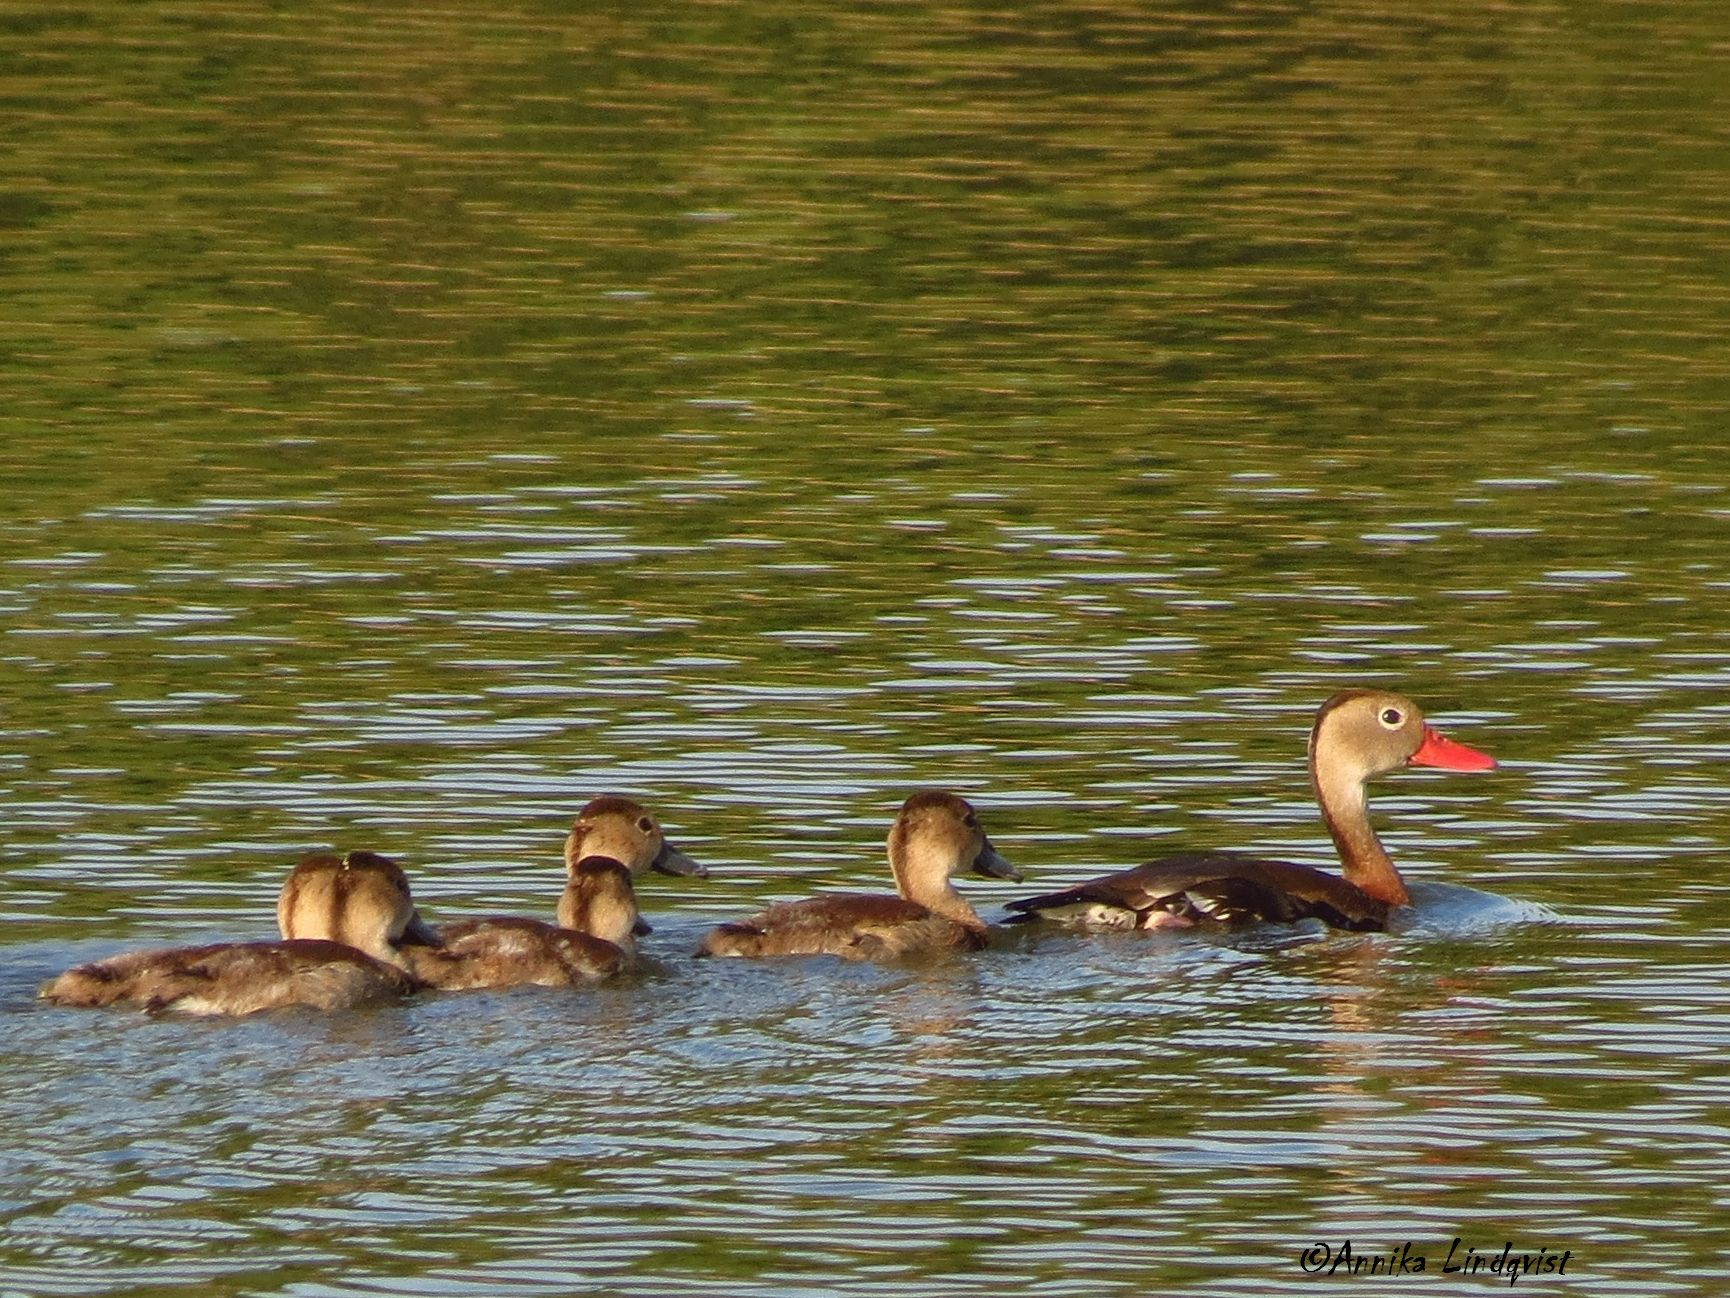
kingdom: Animalia
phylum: Chordata
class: Aves
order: Anseriformes
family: Anatidae
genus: Dendrocygna
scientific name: Dendrocygna autumnalis
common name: Black-bellied whistling duck
